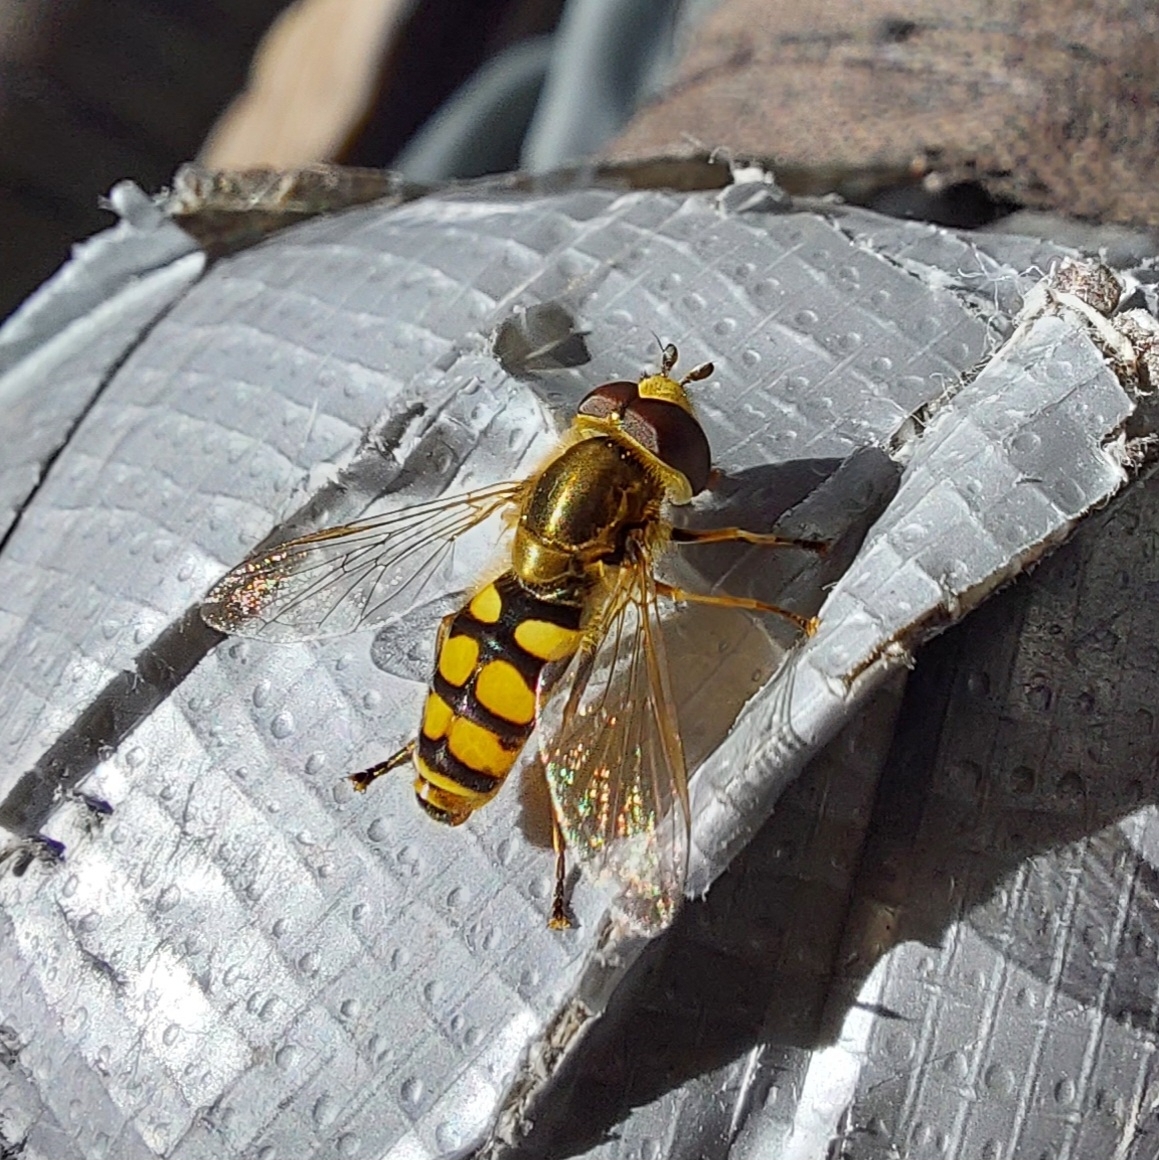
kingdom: Animalia
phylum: Arthropoda
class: Insecta
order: Diptera
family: Syrphidae
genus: Eupeodes
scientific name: Eupeodes corollae
